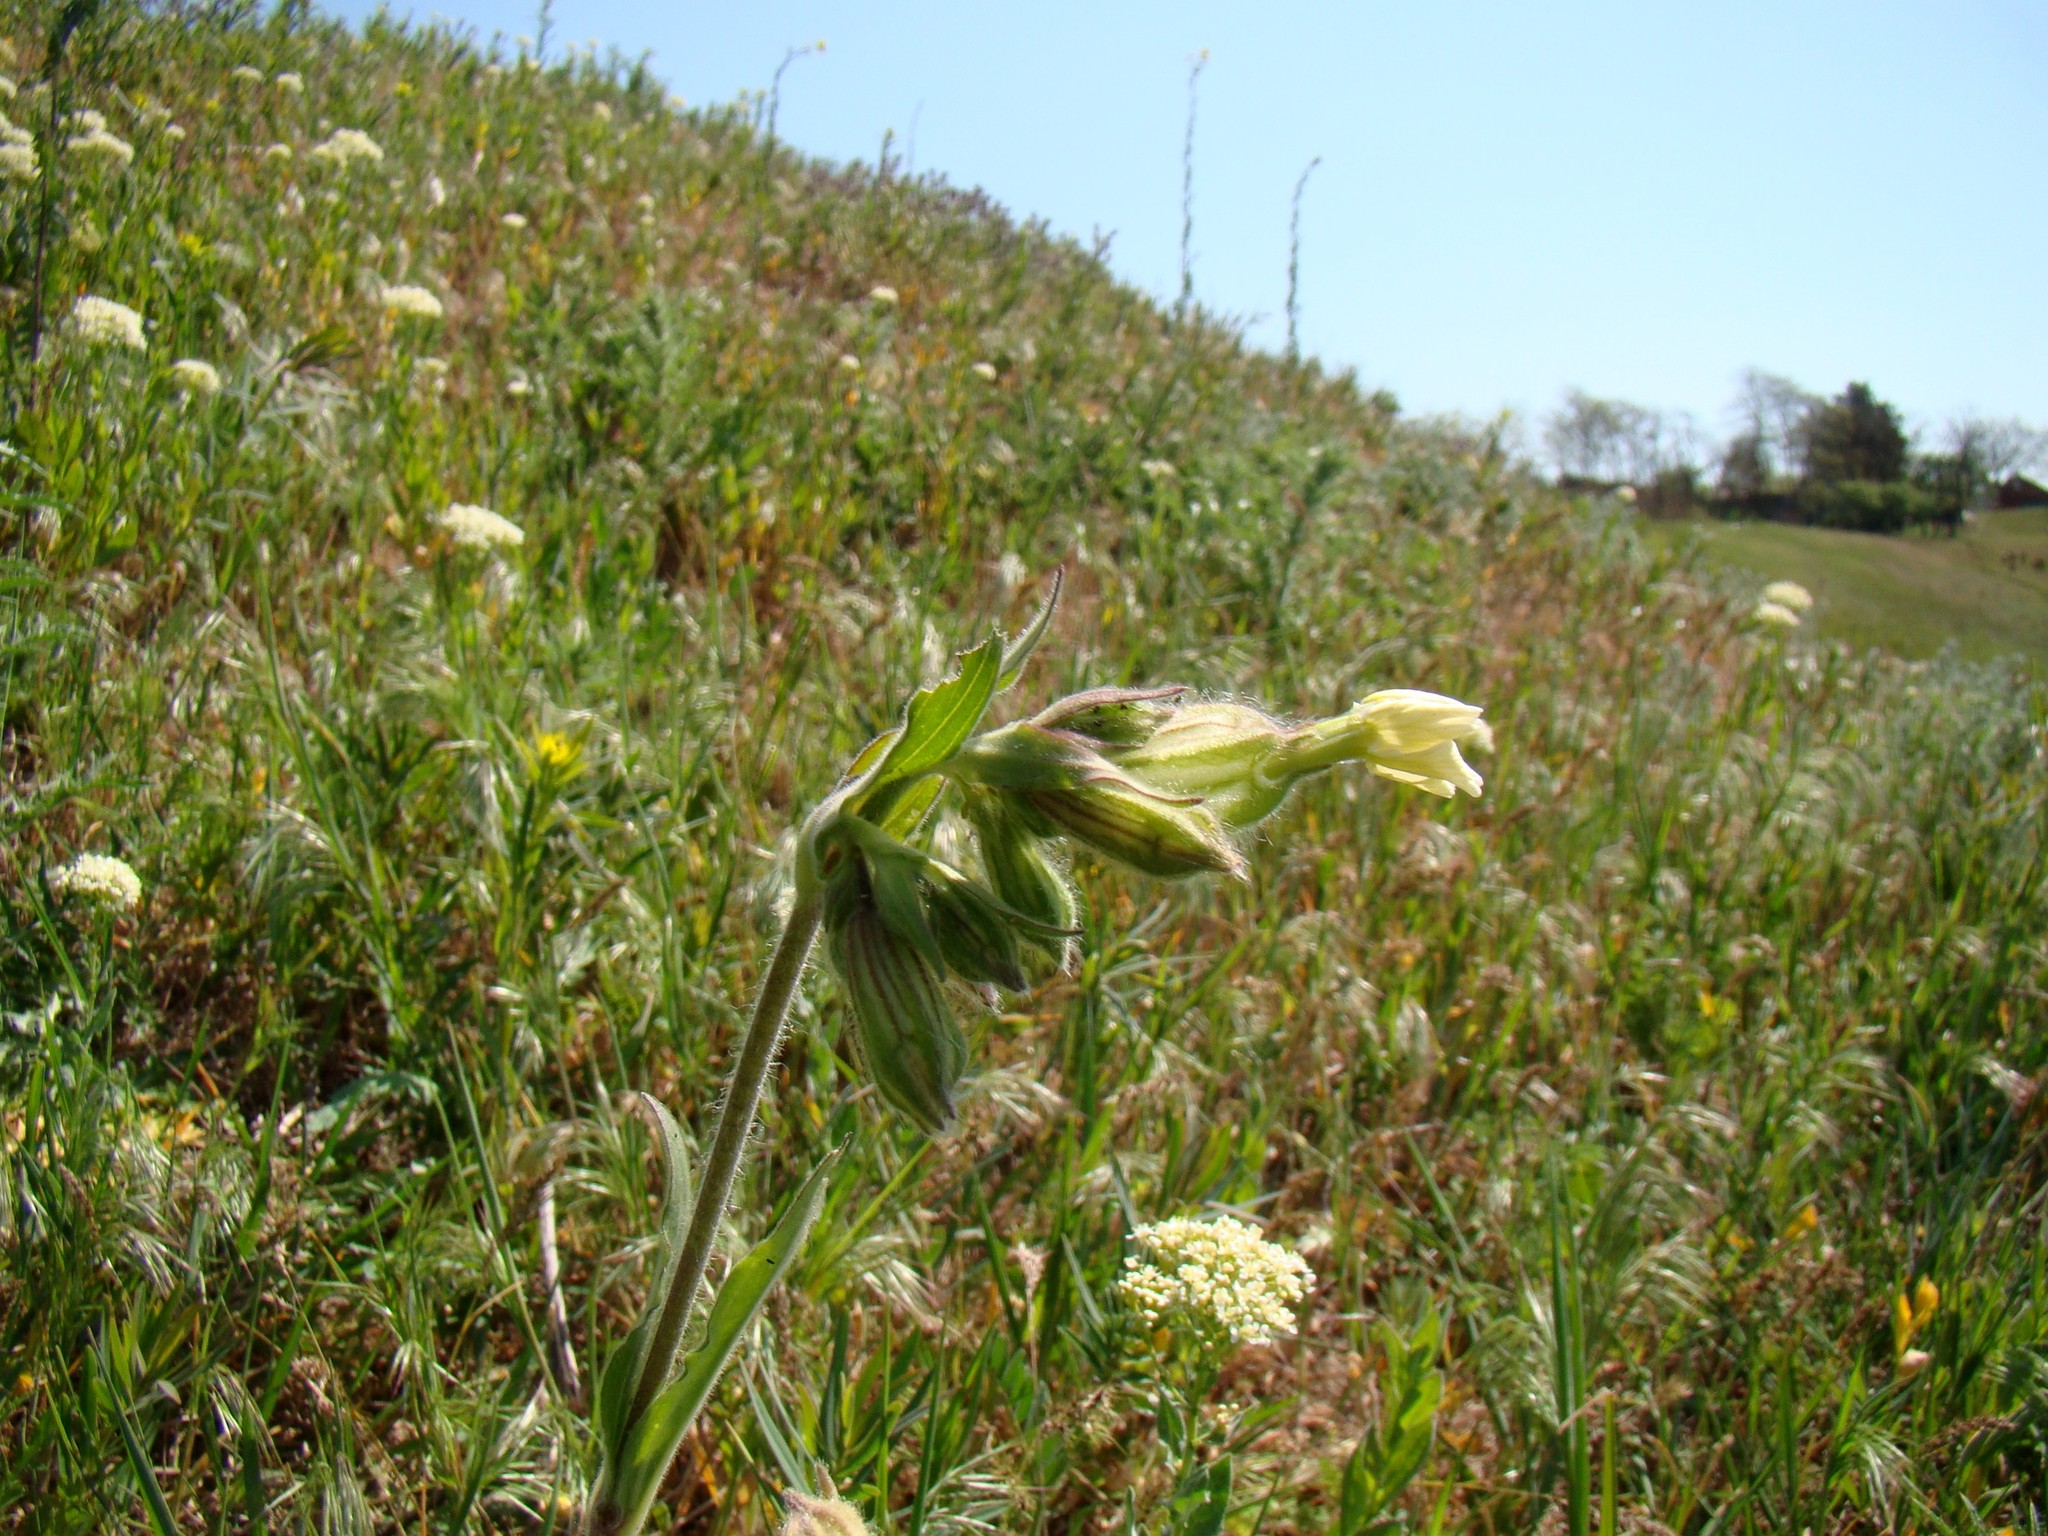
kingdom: Plantae
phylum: Tracheophyta
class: Magnoliopsida
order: Caryophyllales
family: Caryophyllaceae
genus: Silene
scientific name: Silene latifolia
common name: White campion
